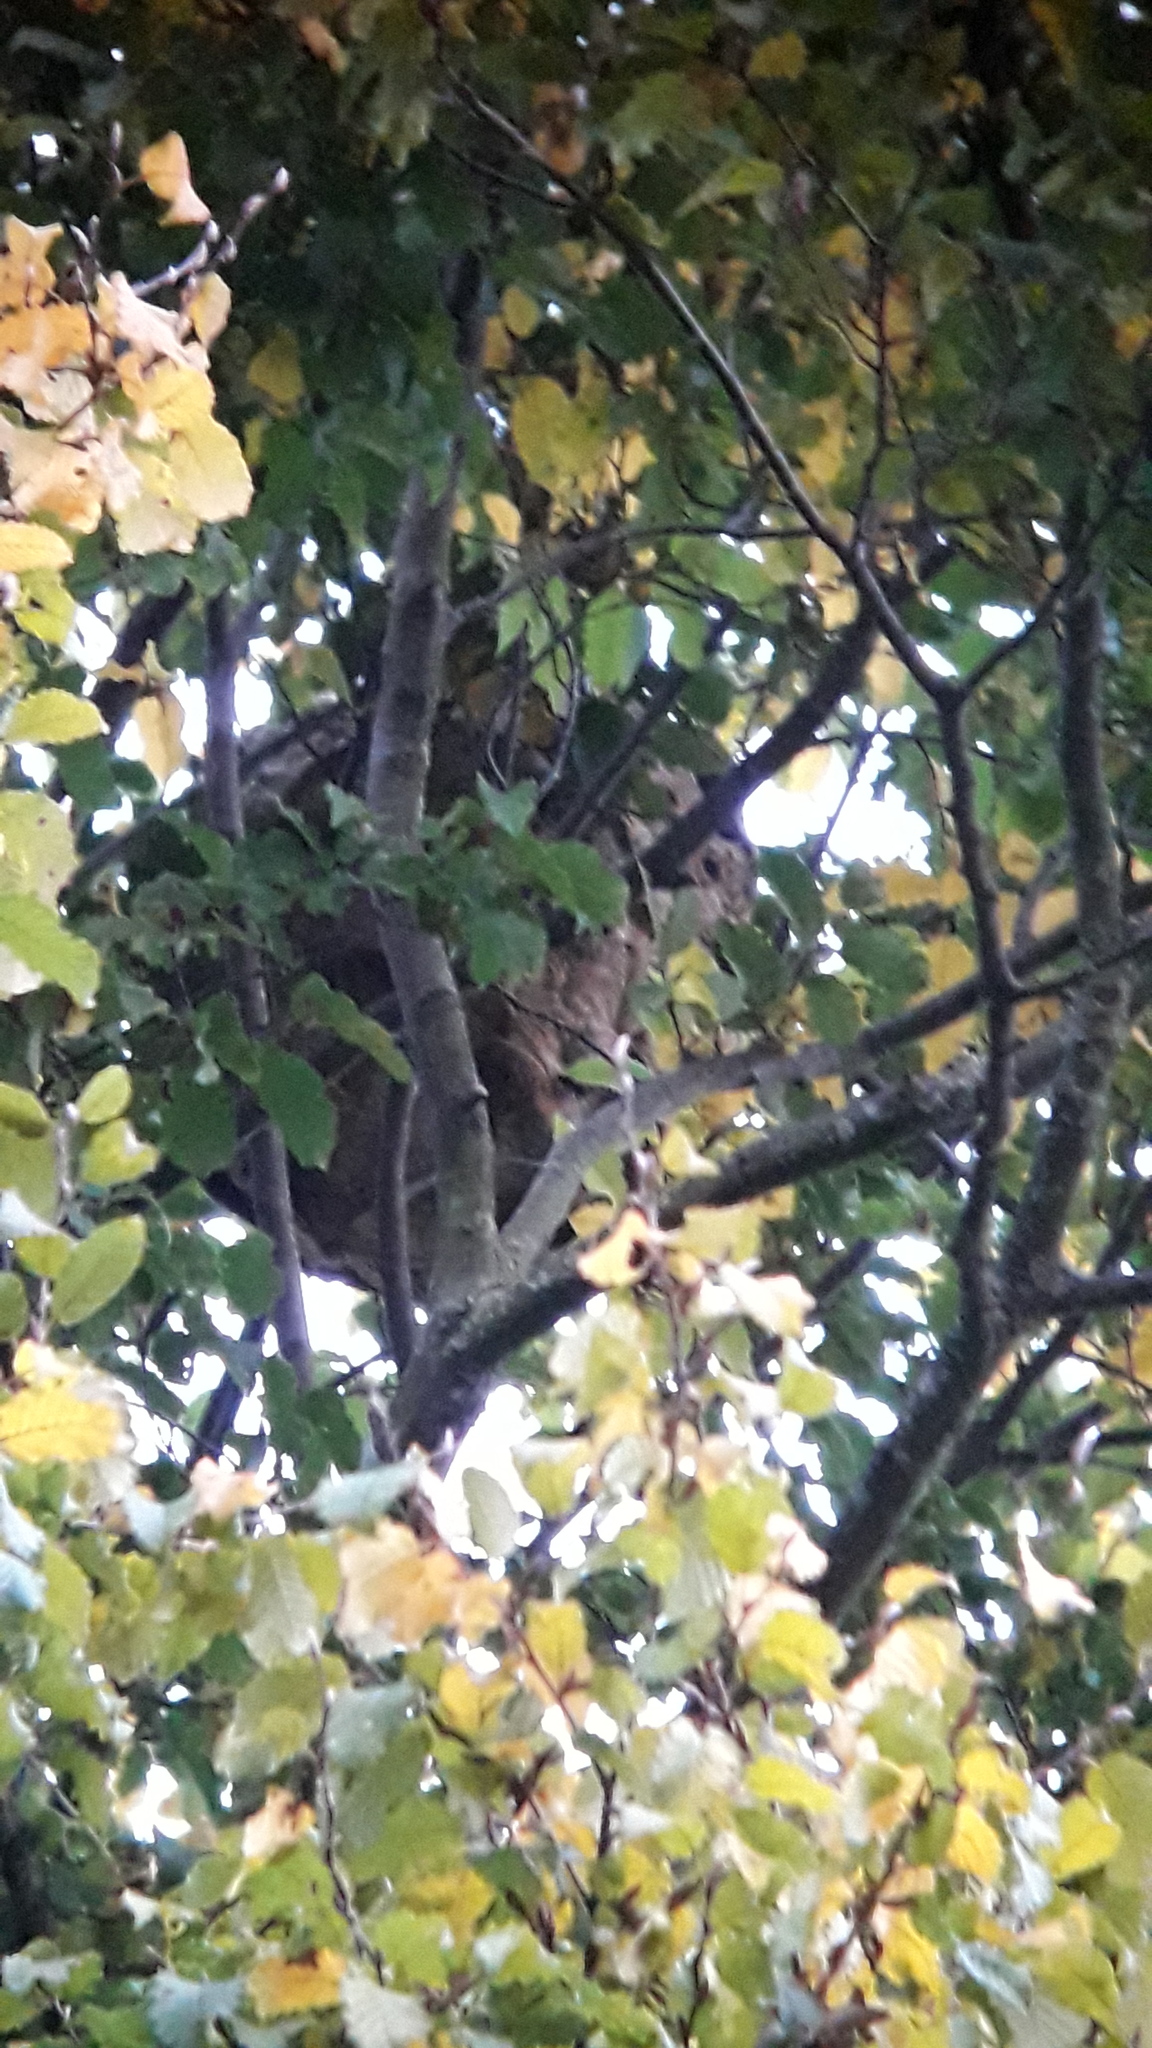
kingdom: Animalia
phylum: Arthropoda
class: Insecta
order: Hymenoptera
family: Vespidae
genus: Vespa
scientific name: Vespa velutina
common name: Asian hornet
